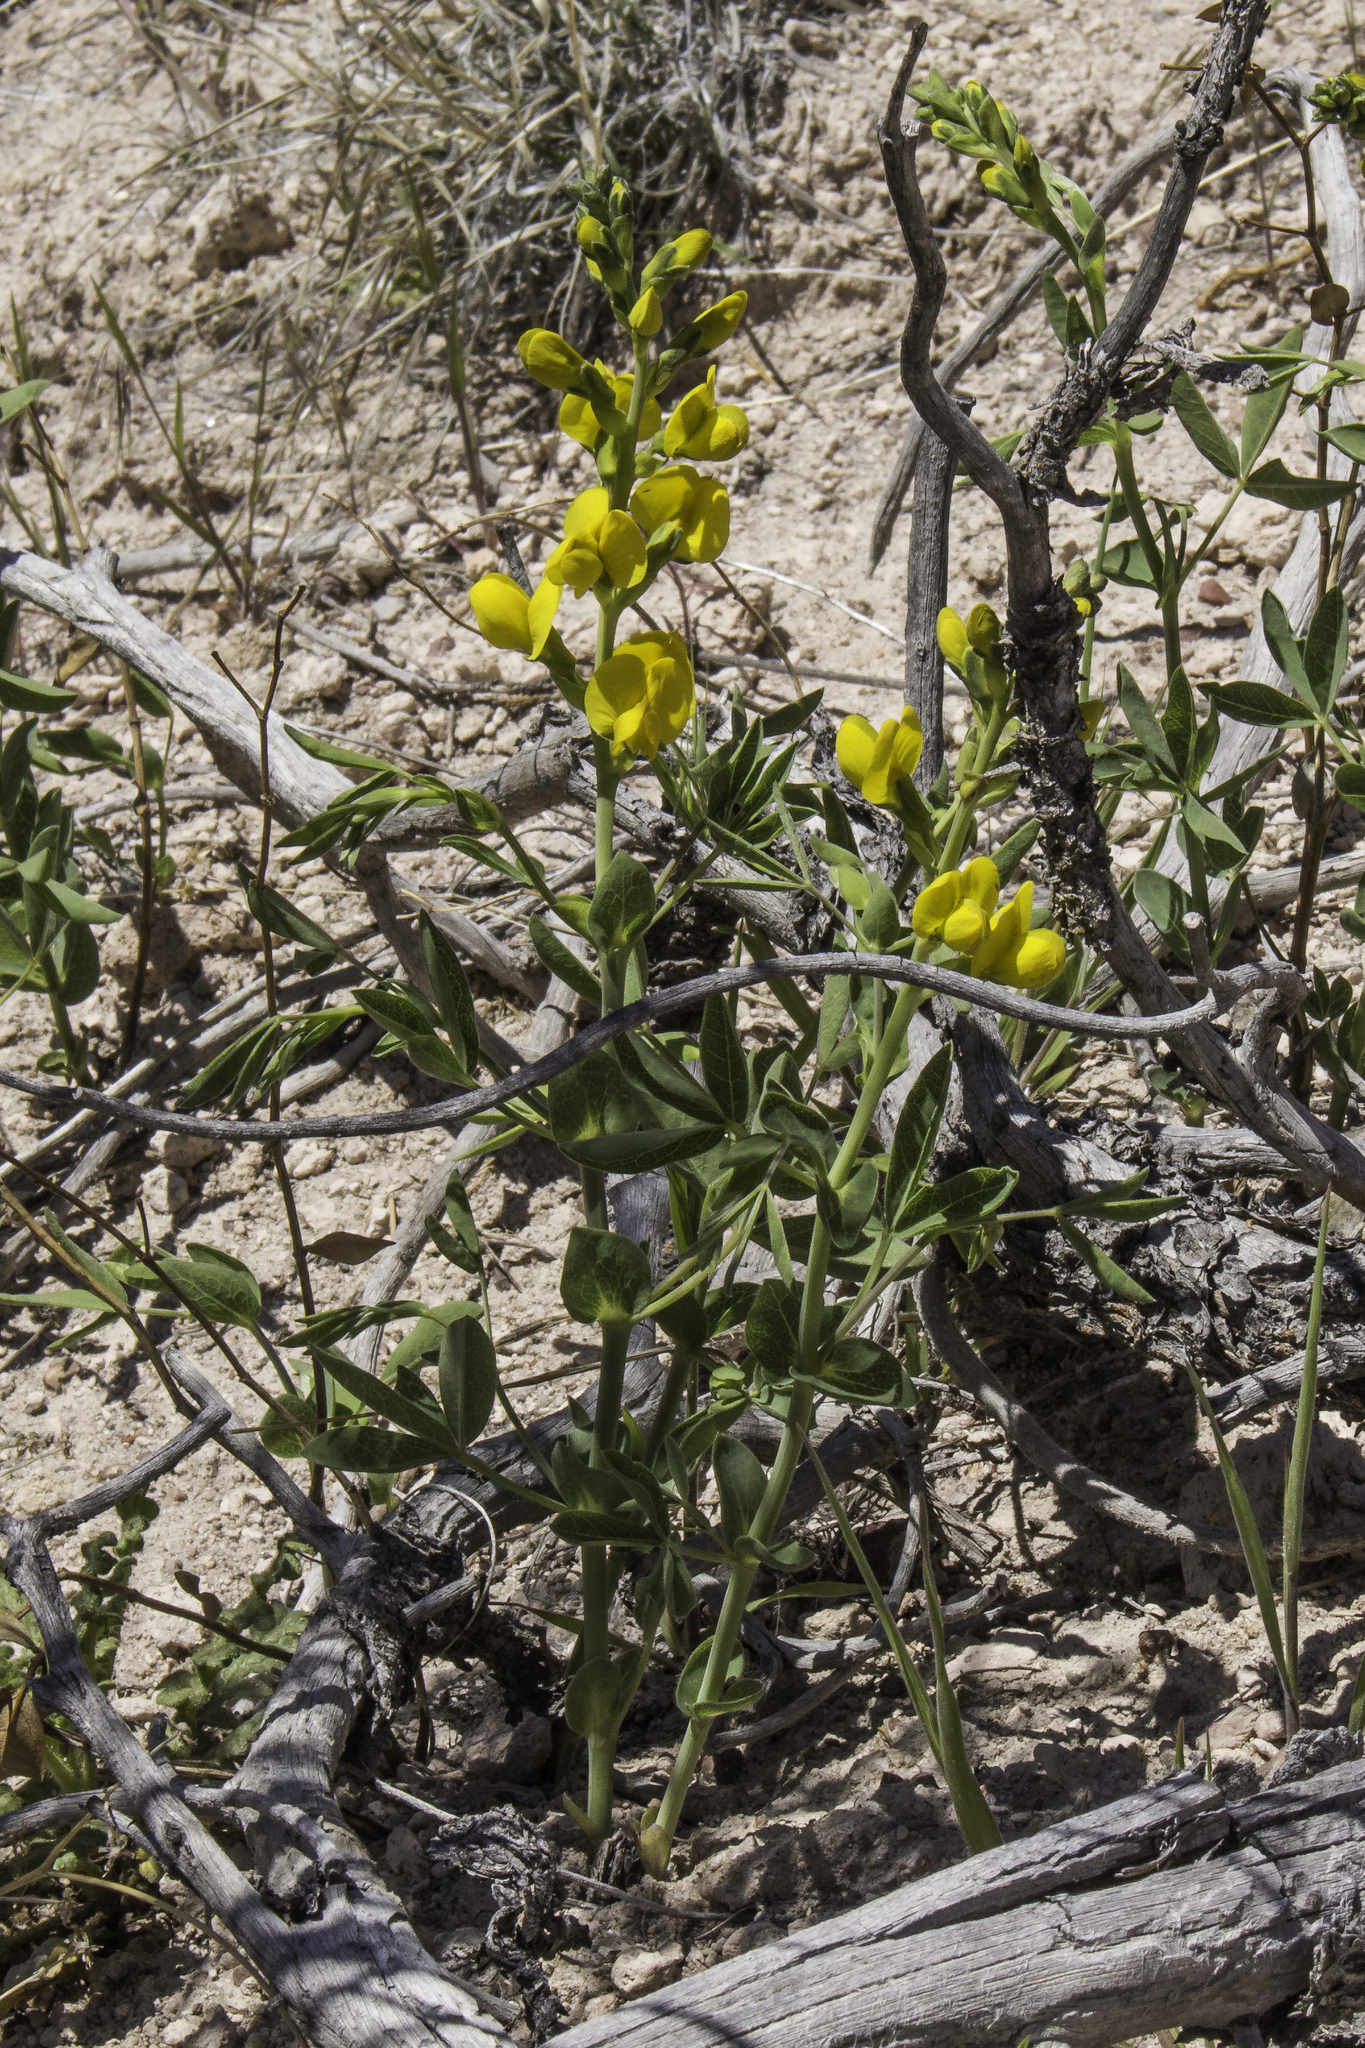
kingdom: Plantae
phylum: Tracheophyta
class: Magnoliopsida
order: Fabales
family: Fabaceae
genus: Thermopsis
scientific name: Thermopsis rhombifolia
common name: Circle-pod-pea
